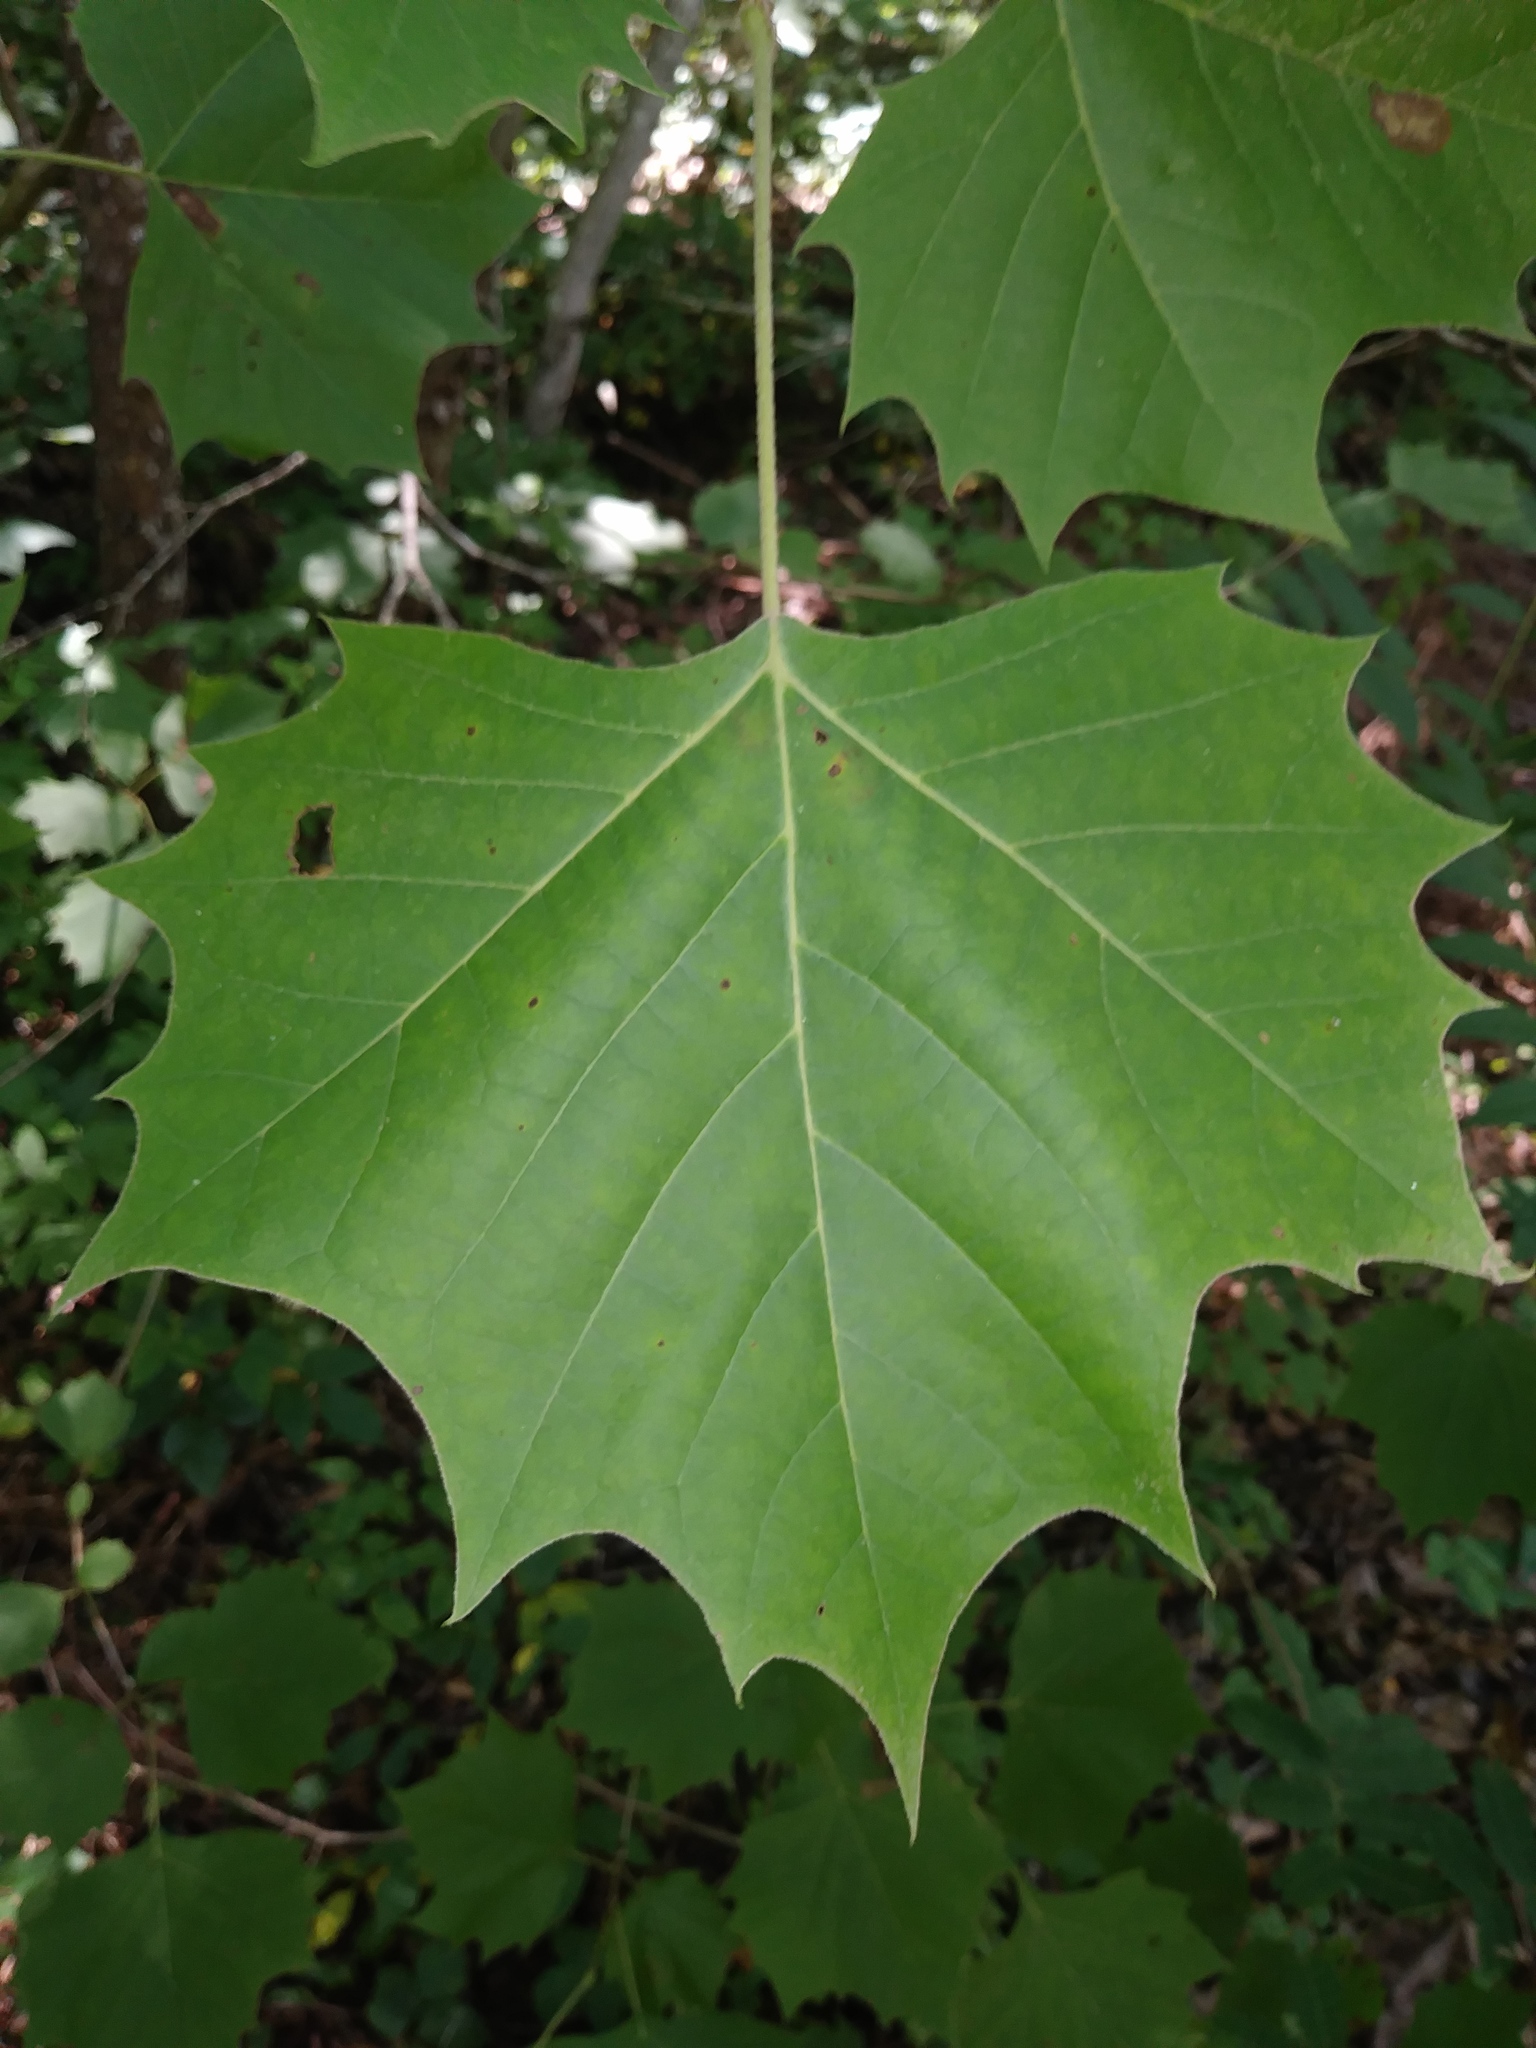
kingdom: Plantae
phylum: Tracheophyta
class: Magnoliopsida
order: Proteales
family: Platanaceae
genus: Platanus
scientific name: Platanus occidentalis
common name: American sycamore
